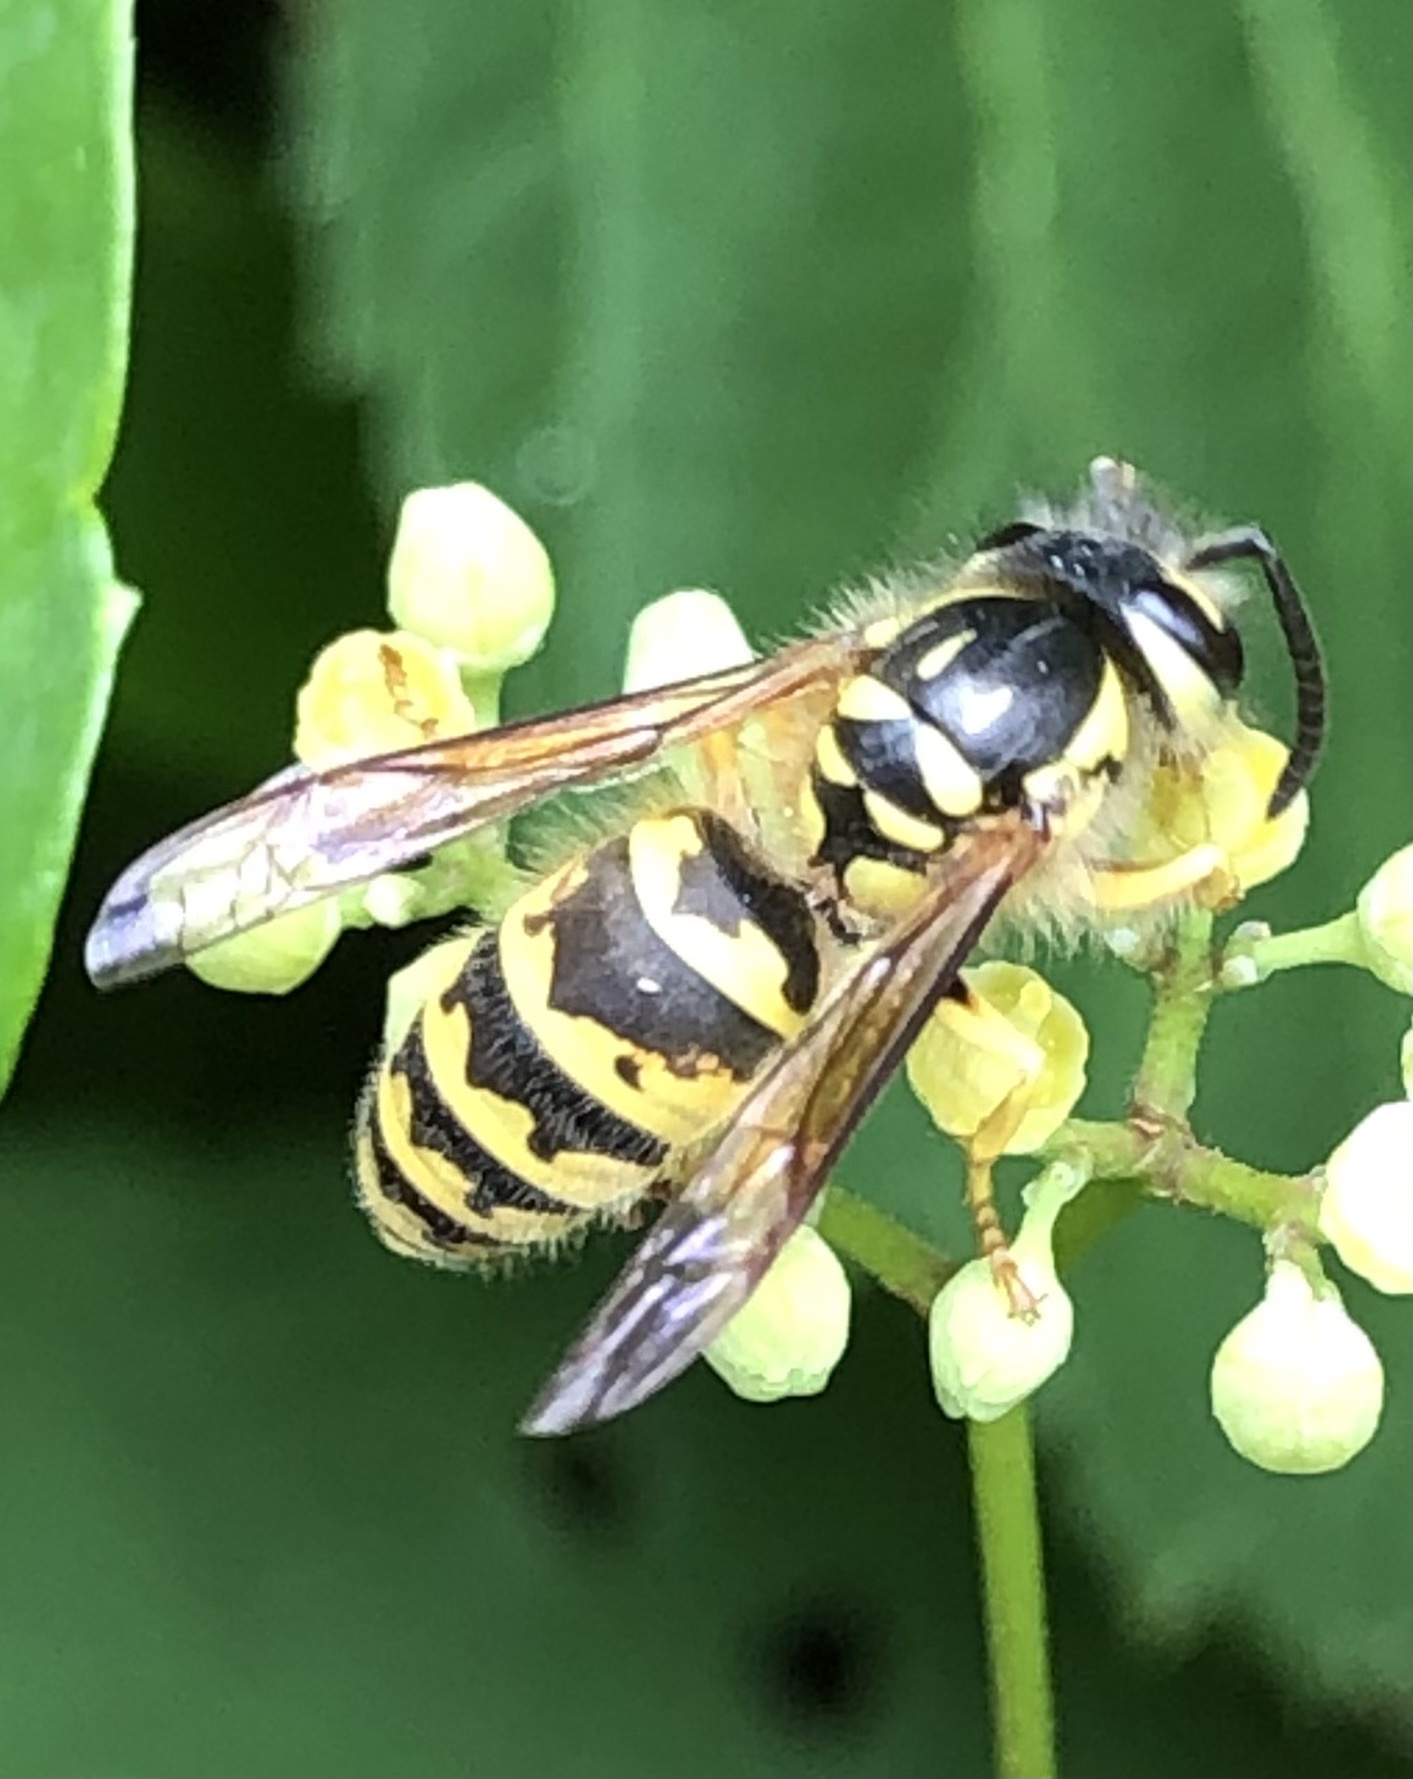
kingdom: Animalia
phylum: Arthropoda
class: Insecta
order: Hymenoptera
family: Vespidae
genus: Vespula
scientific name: Vespula flavopilosa
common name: Downy yellowjacket
